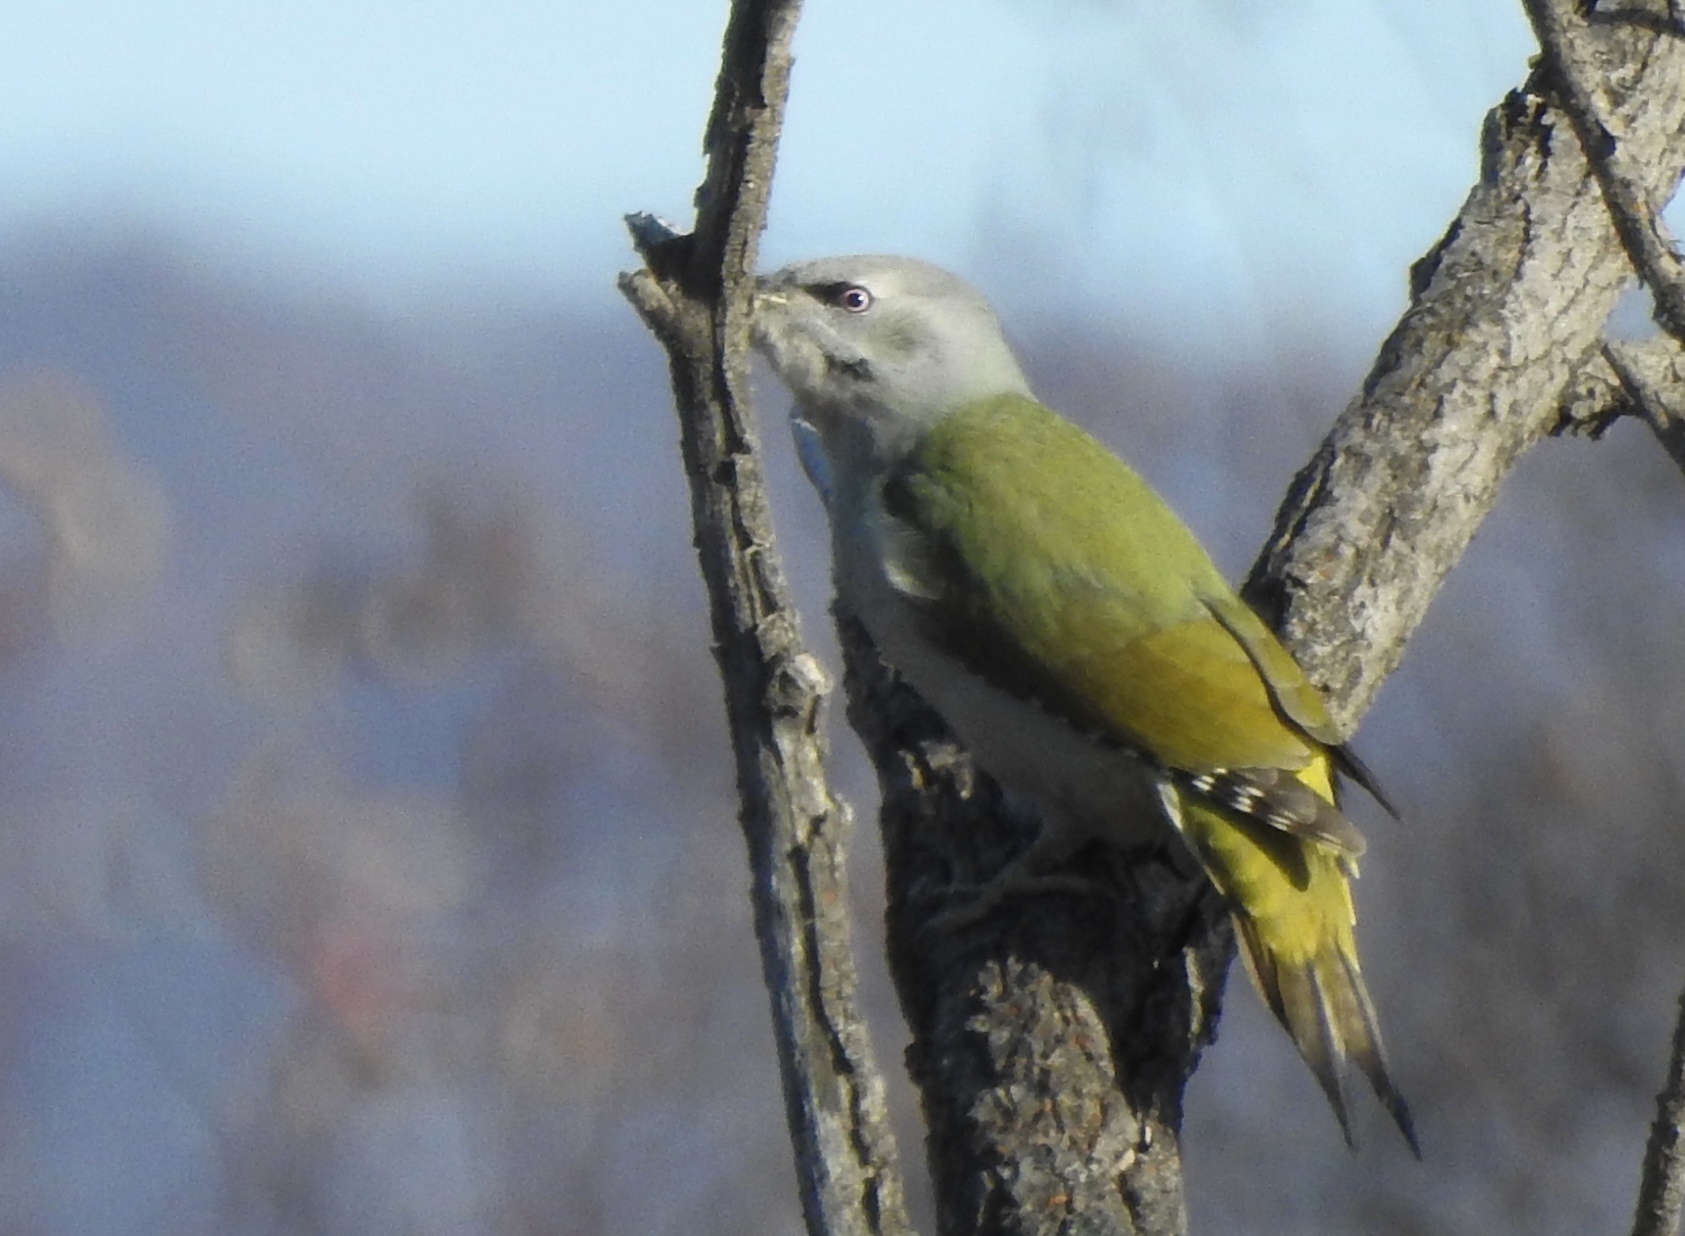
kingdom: Animalia
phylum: Chordata
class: Aves
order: Piciformes
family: Picidae
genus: Picus
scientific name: Picus canus
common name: Grey-headed woodpecker
